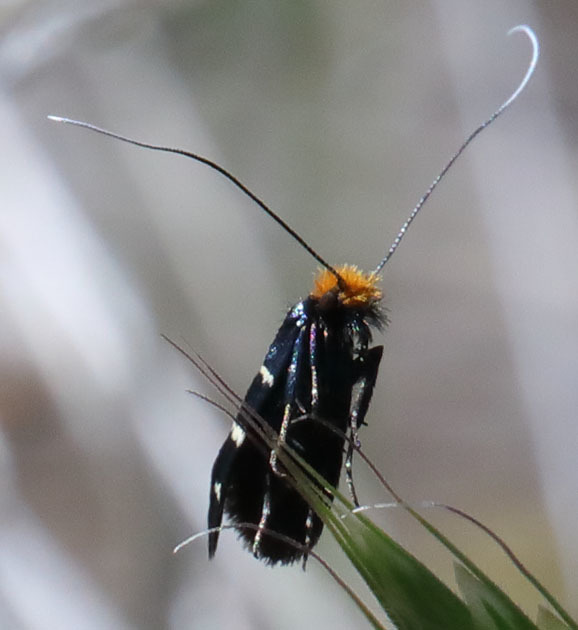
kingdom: Animalia
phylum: Arthropoda
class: Insecta
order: Lepidoptera
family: Adelidae
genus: Adela
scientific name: Adela trigrapha
